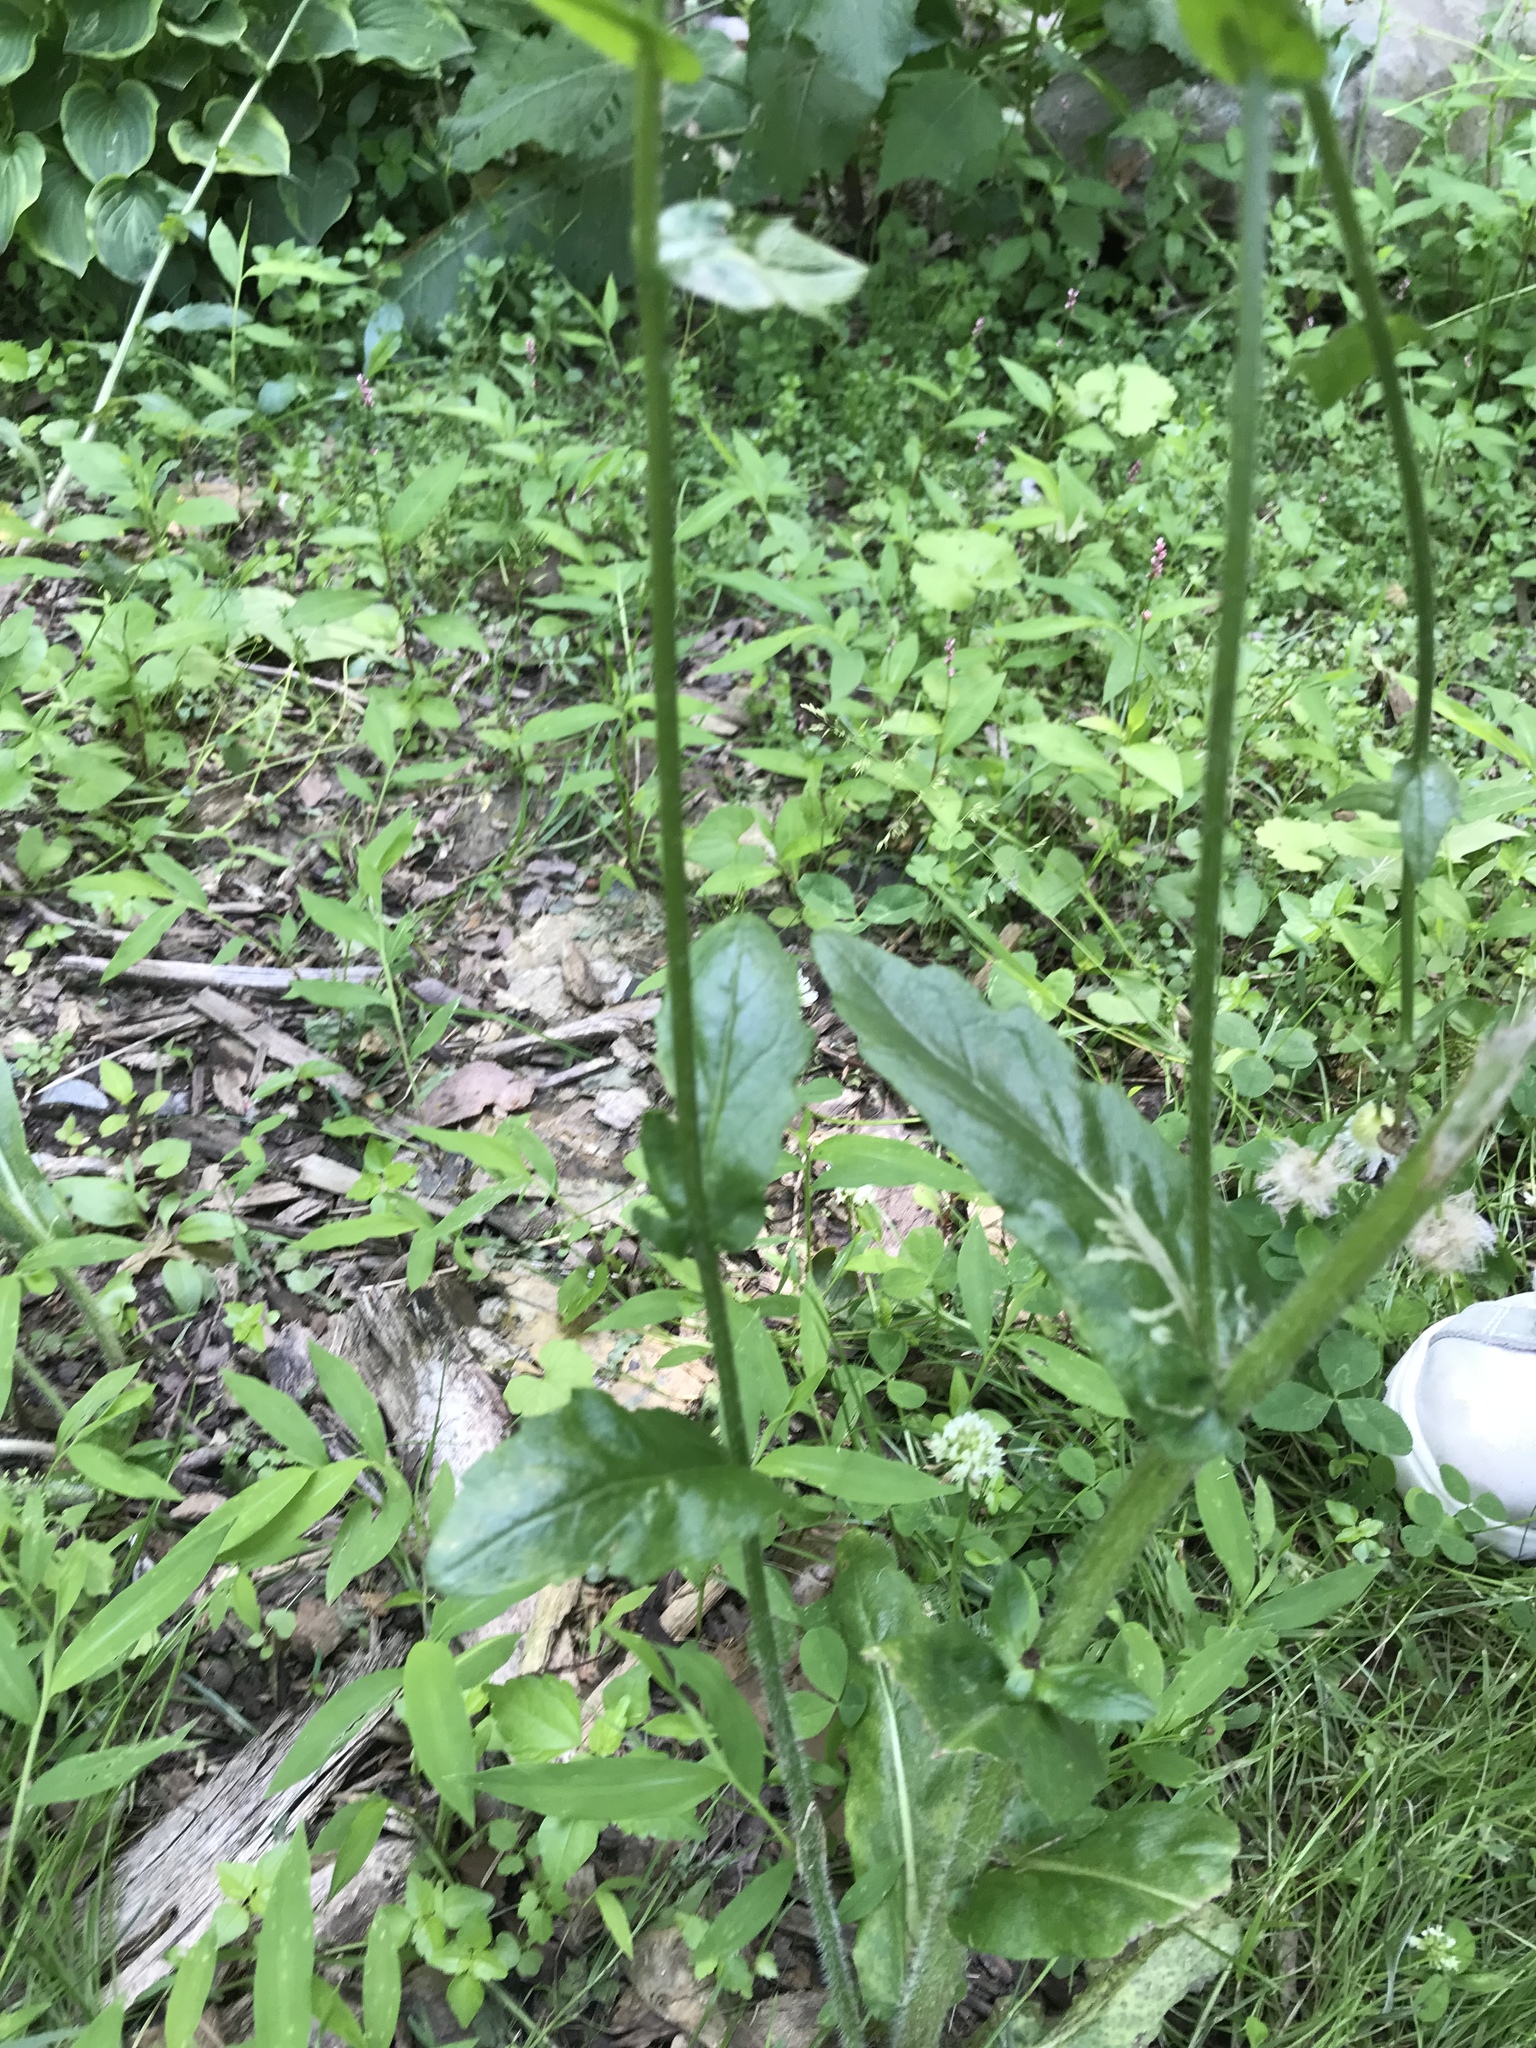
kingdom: Plantae
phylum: Tracheophyta
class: Magnoliopsida
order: Asterales
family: Asteraceae
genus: Erigeron
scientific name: Erigeron philadelphicus
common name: Robin's-plantain
